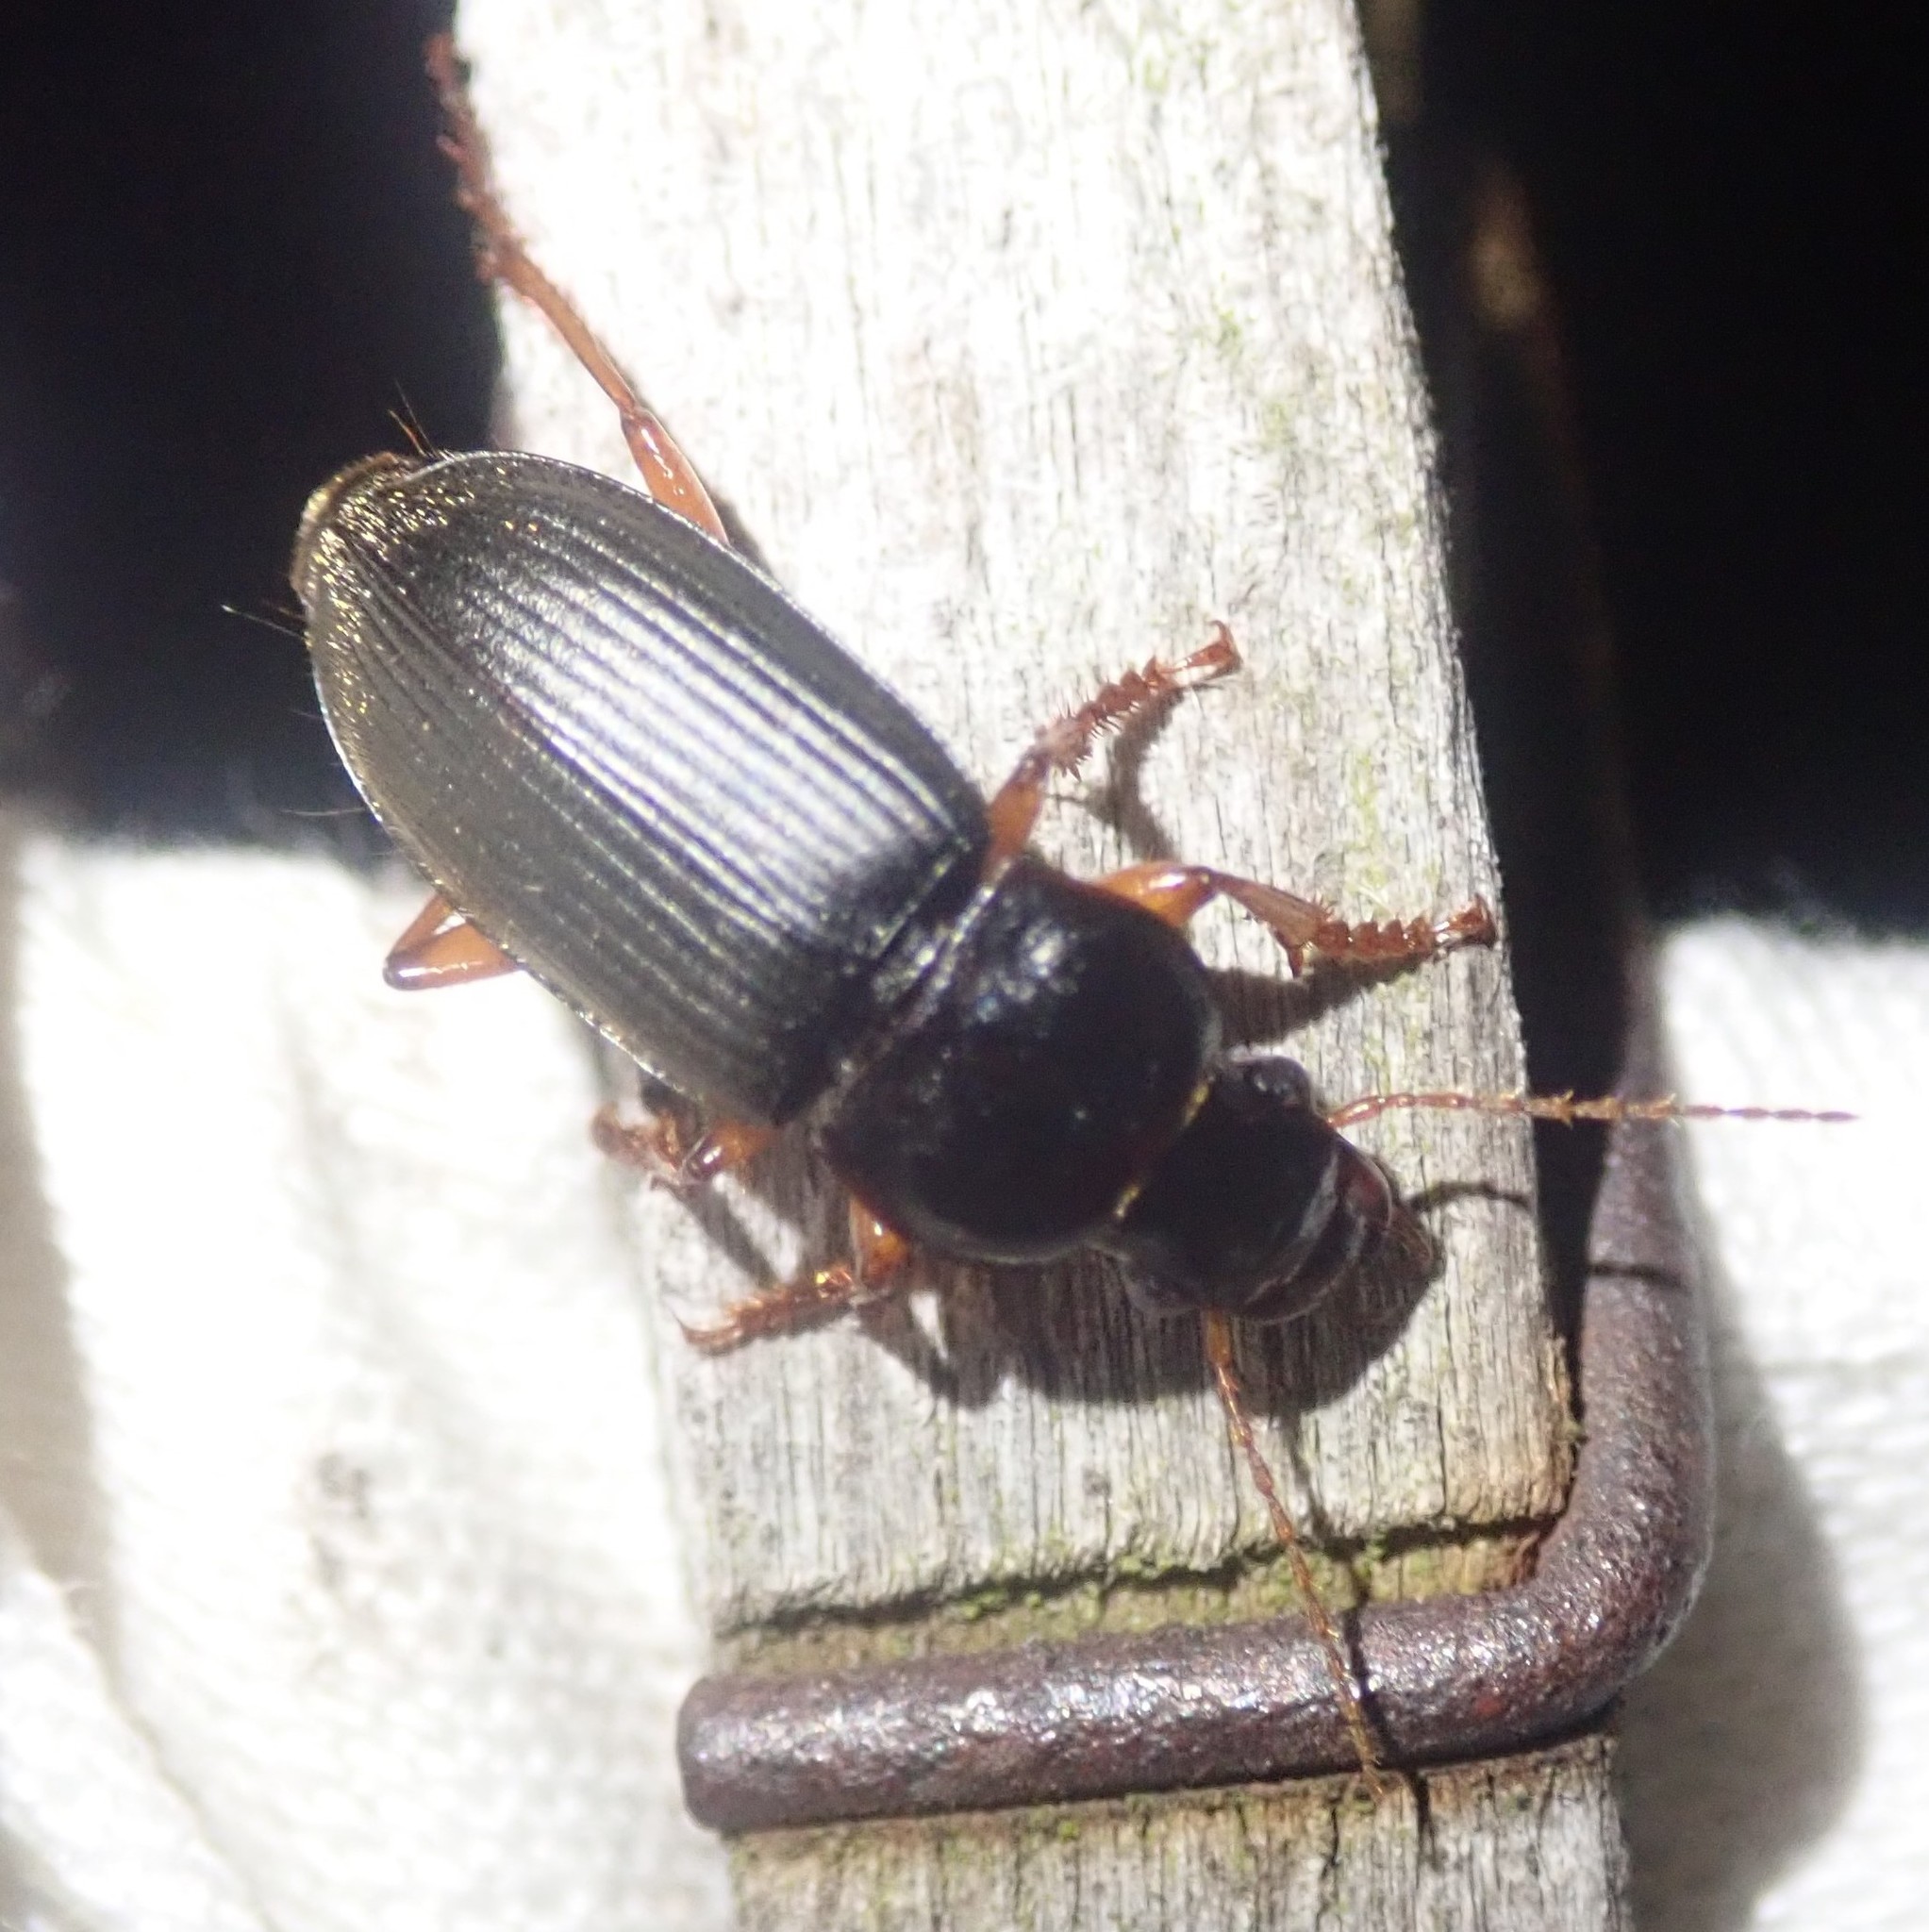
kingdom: Animalia
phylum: Arthropoda
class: Insecta
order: Coleoptera
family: Carabidae
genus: Harpalus
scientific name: Harpalus rufipes
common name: Strawberry harp ground beetle
